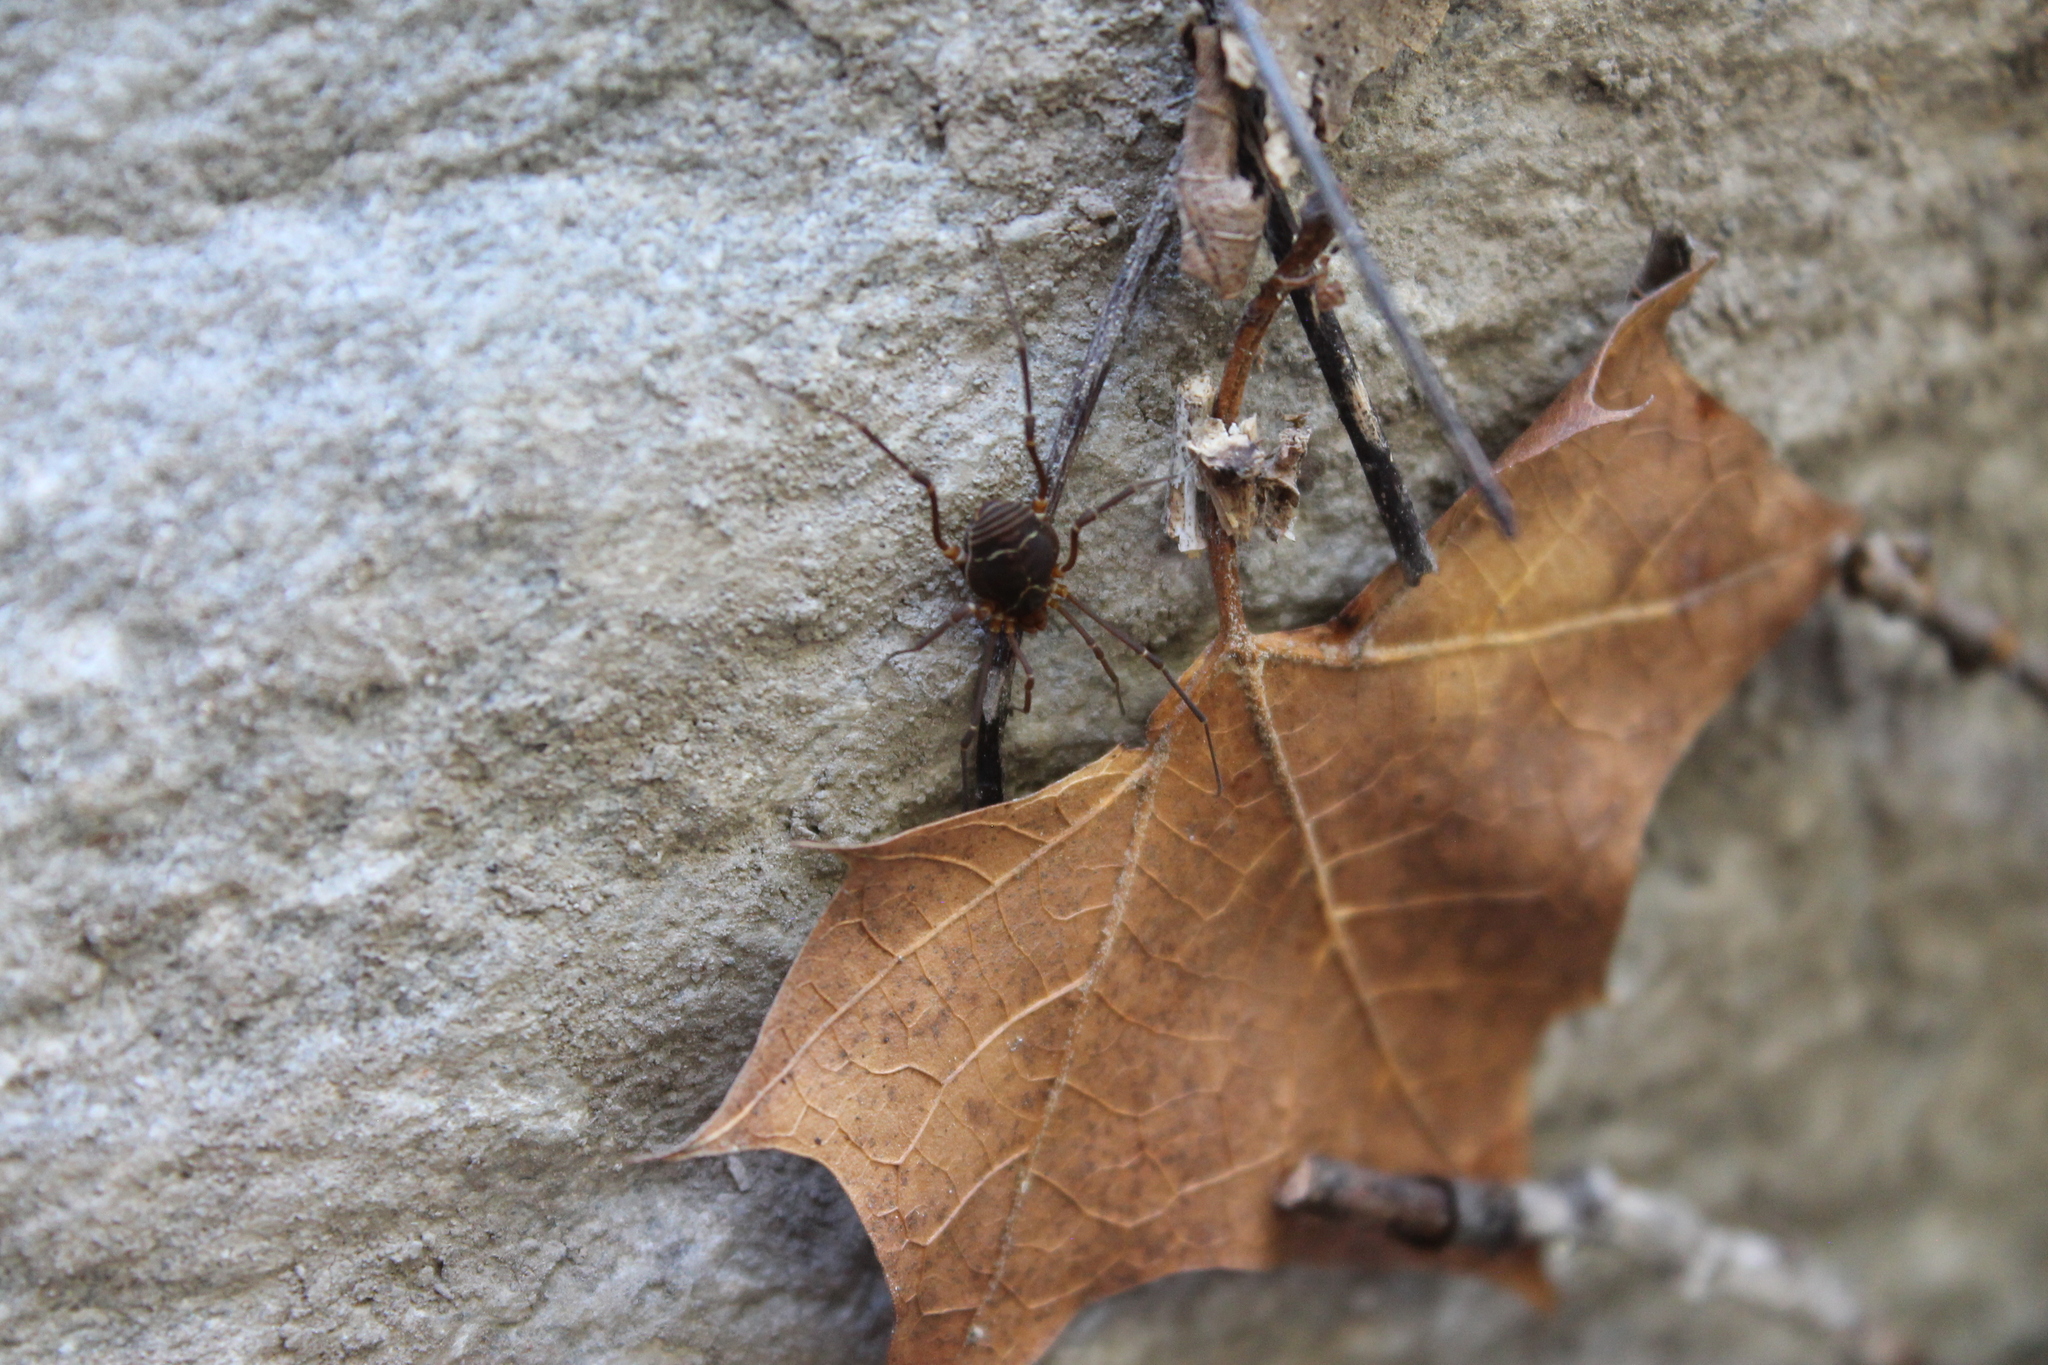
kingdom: Animalia
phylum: Arthropoda
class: Arachnida
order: Opiliones
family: Cosmetidae
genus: Libitioides
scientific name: Libitioides sayi
